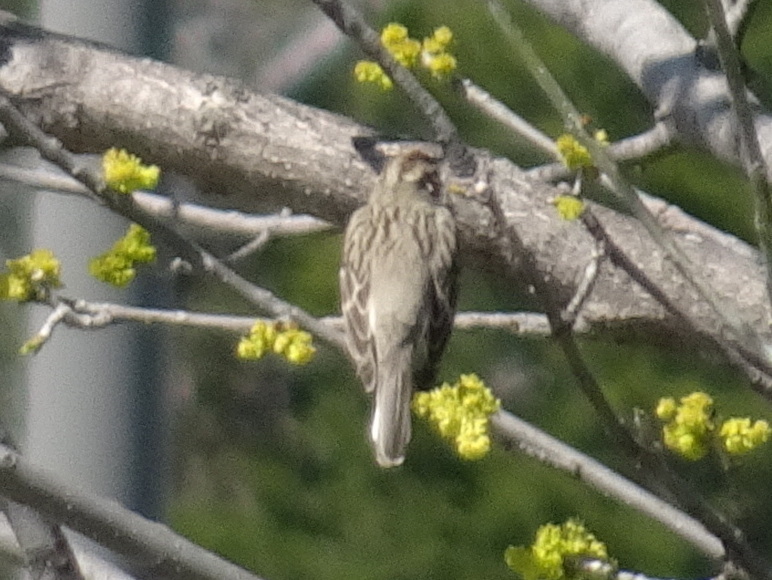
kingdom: Animalia
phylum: Chordata
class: Aves
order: Passeriformes
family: Passerellidae
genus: Chondestes
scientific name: Chondestes grammacus
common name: Lark sparrow
